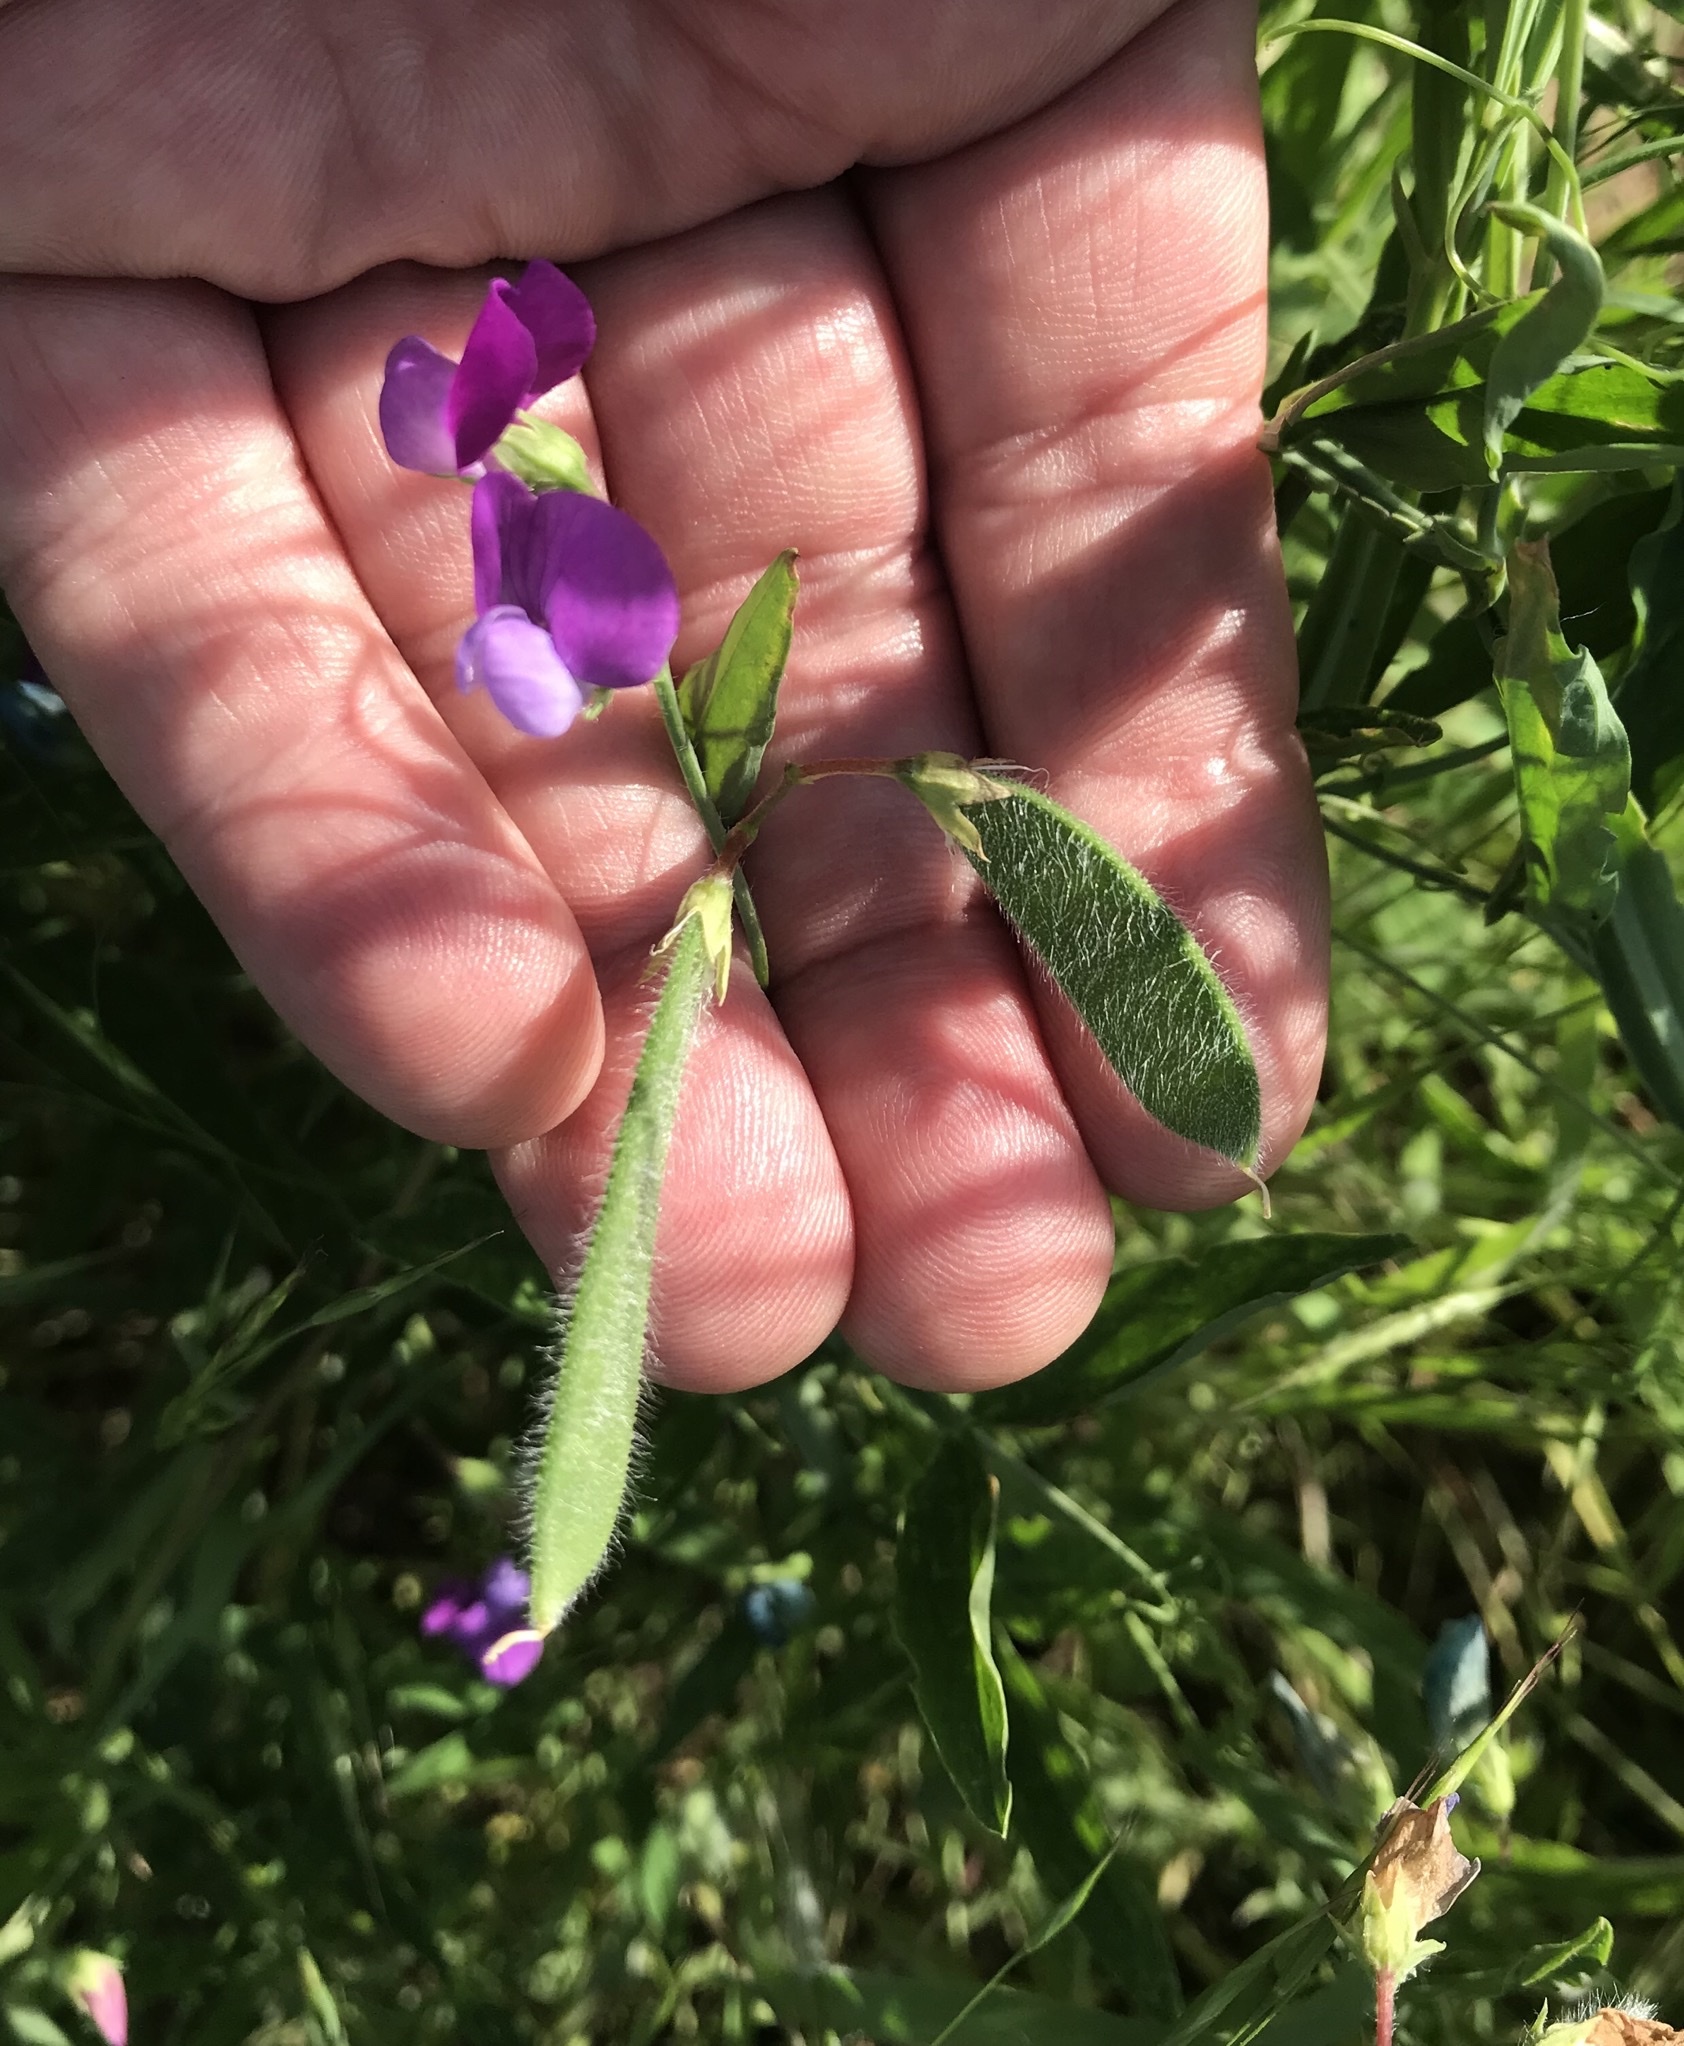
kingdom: Plantae
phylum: Tracheophyta
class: Magnoliopsida
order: Fabales
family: Fabaceae
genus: Lathyrus
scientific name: Lathyrus hirsutus
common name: Hairy vetchling
